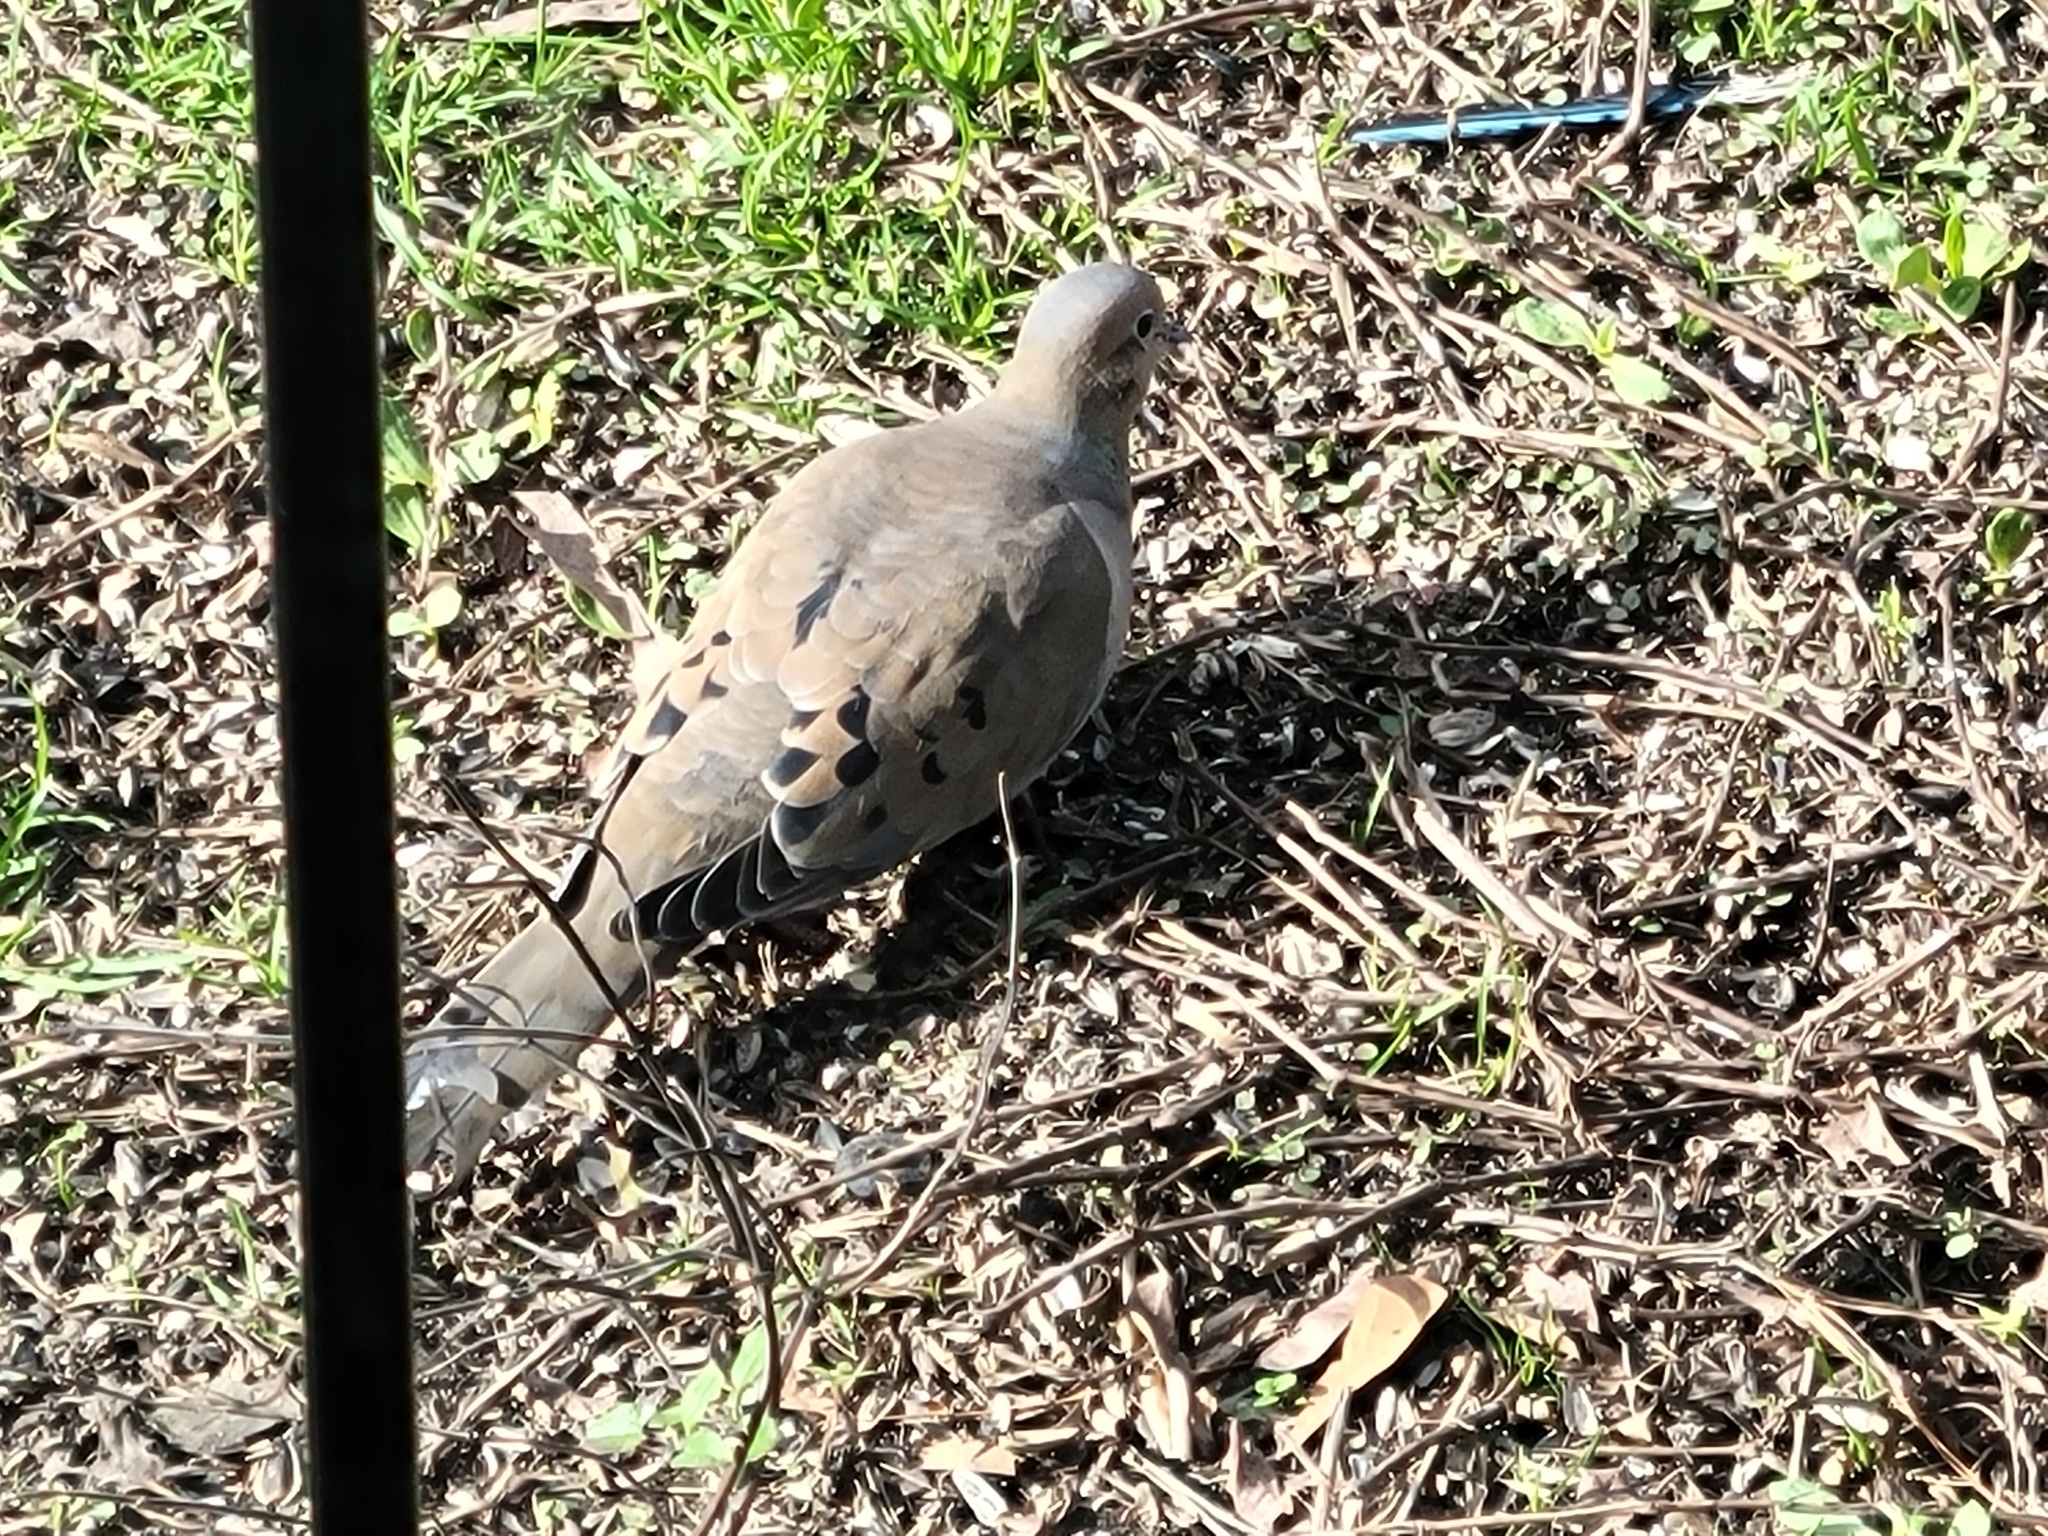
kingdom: Animalia
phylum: Chordata
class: Aves
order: Columbiformes
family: Columbidae
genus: Zenaida
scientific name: Zenaida macroura
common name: Mourning dove
